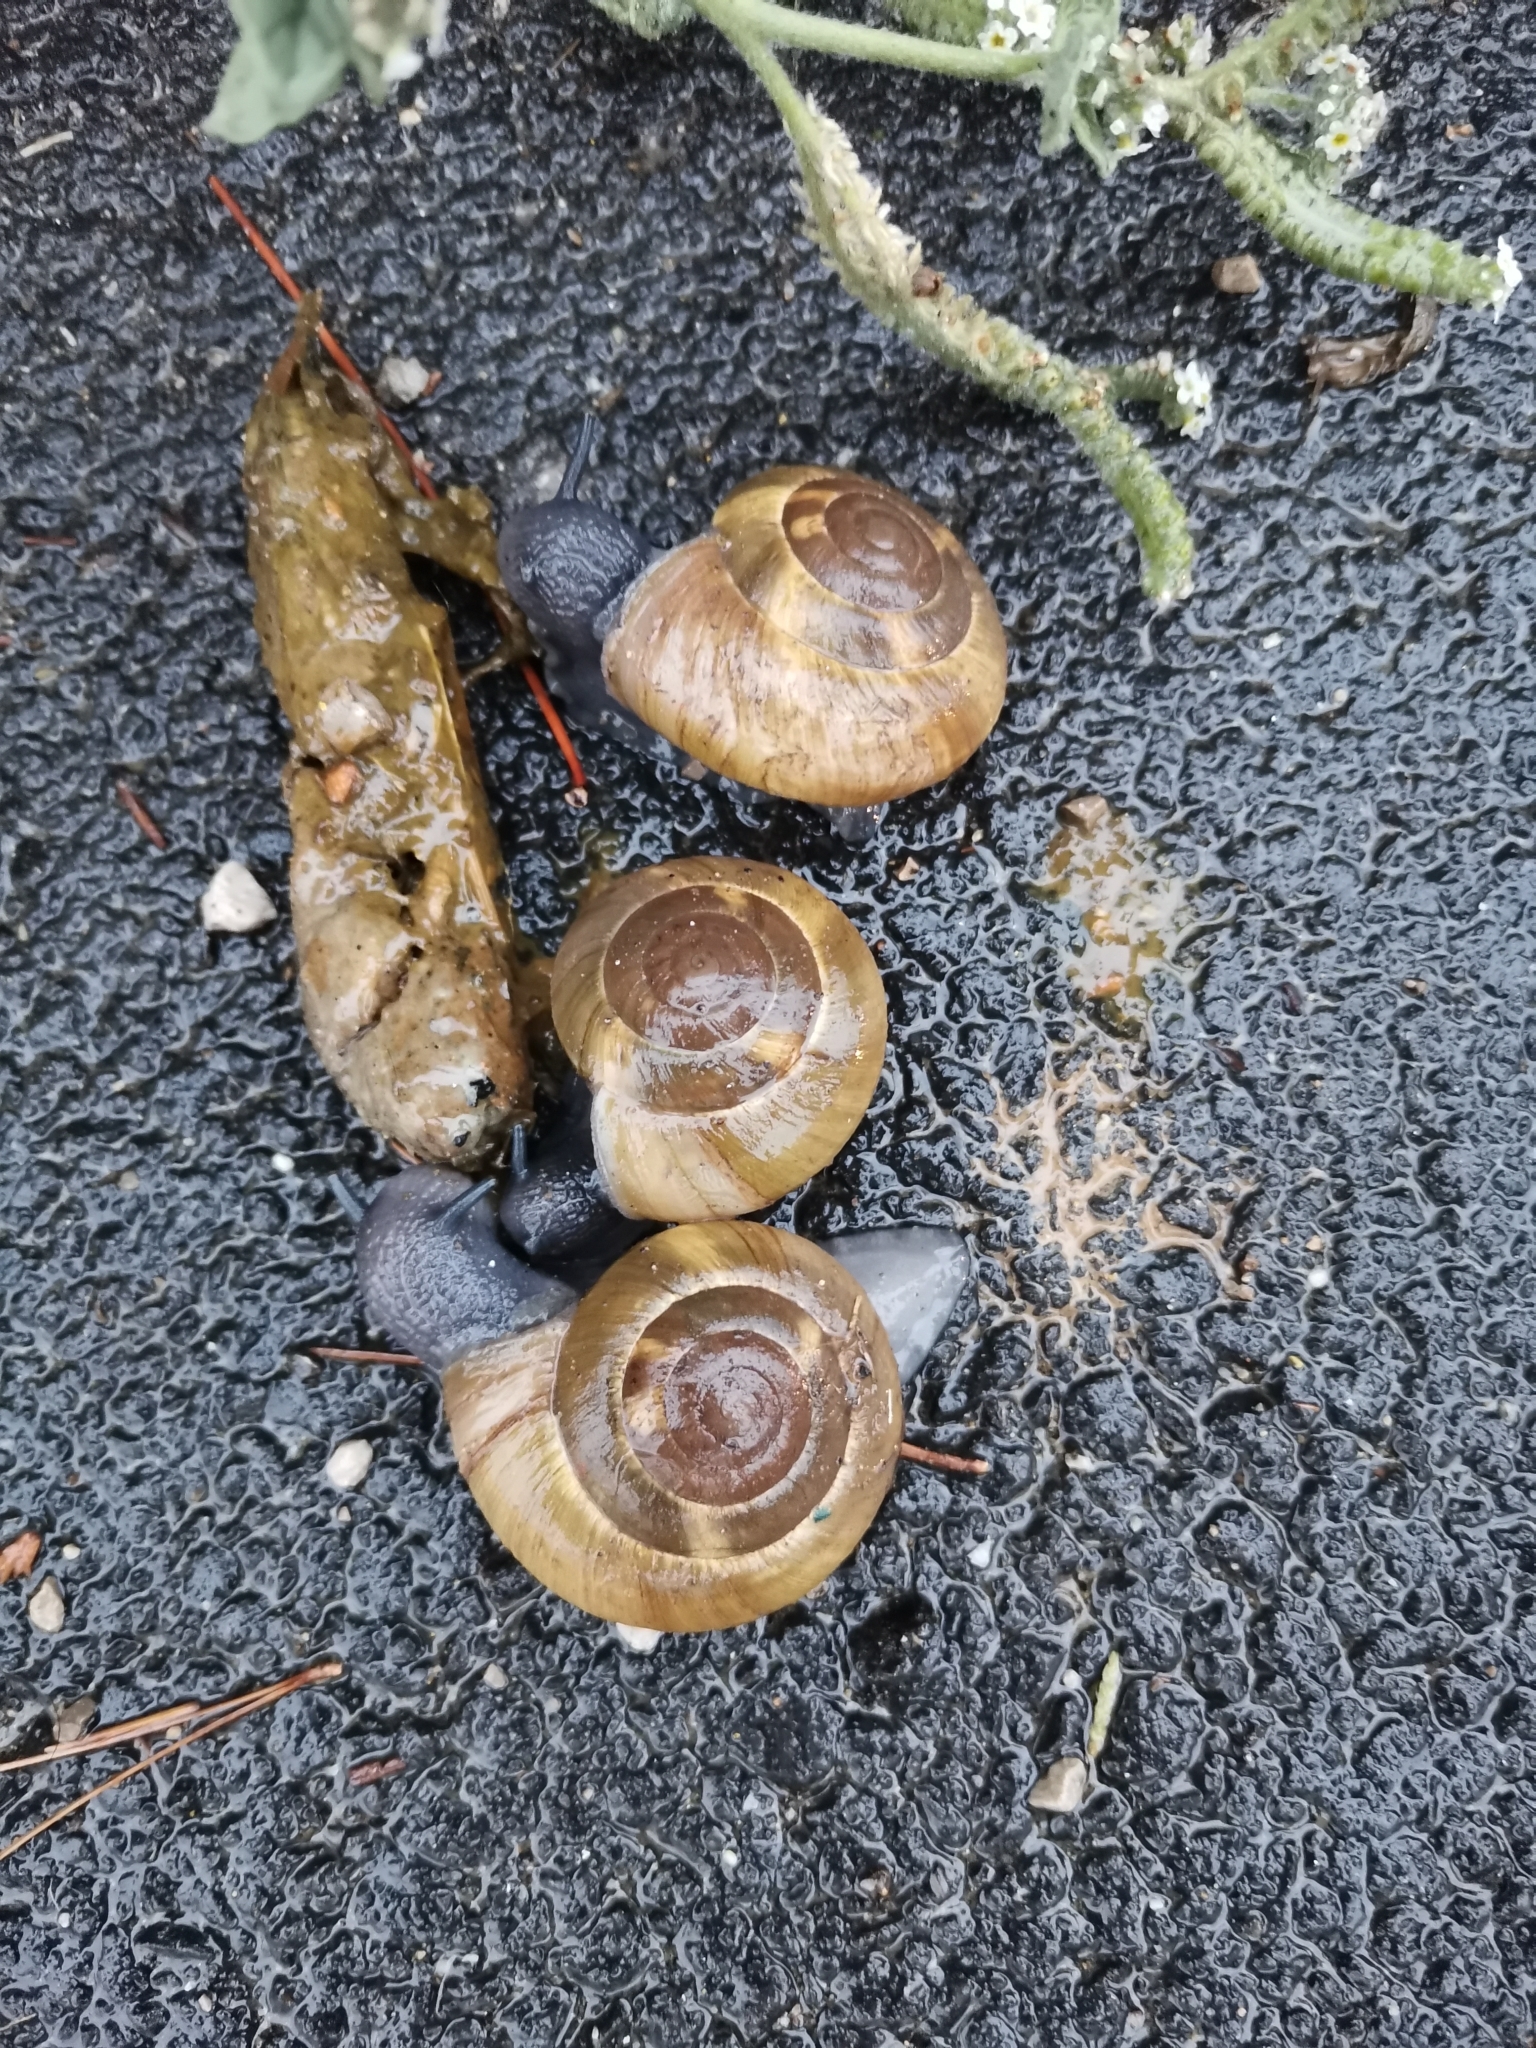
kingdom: Animalia
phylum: Mollusca
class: Gastropoda
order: Stylommatophora
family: Zonitidae
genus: Zonites
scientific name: Zonites algirus
